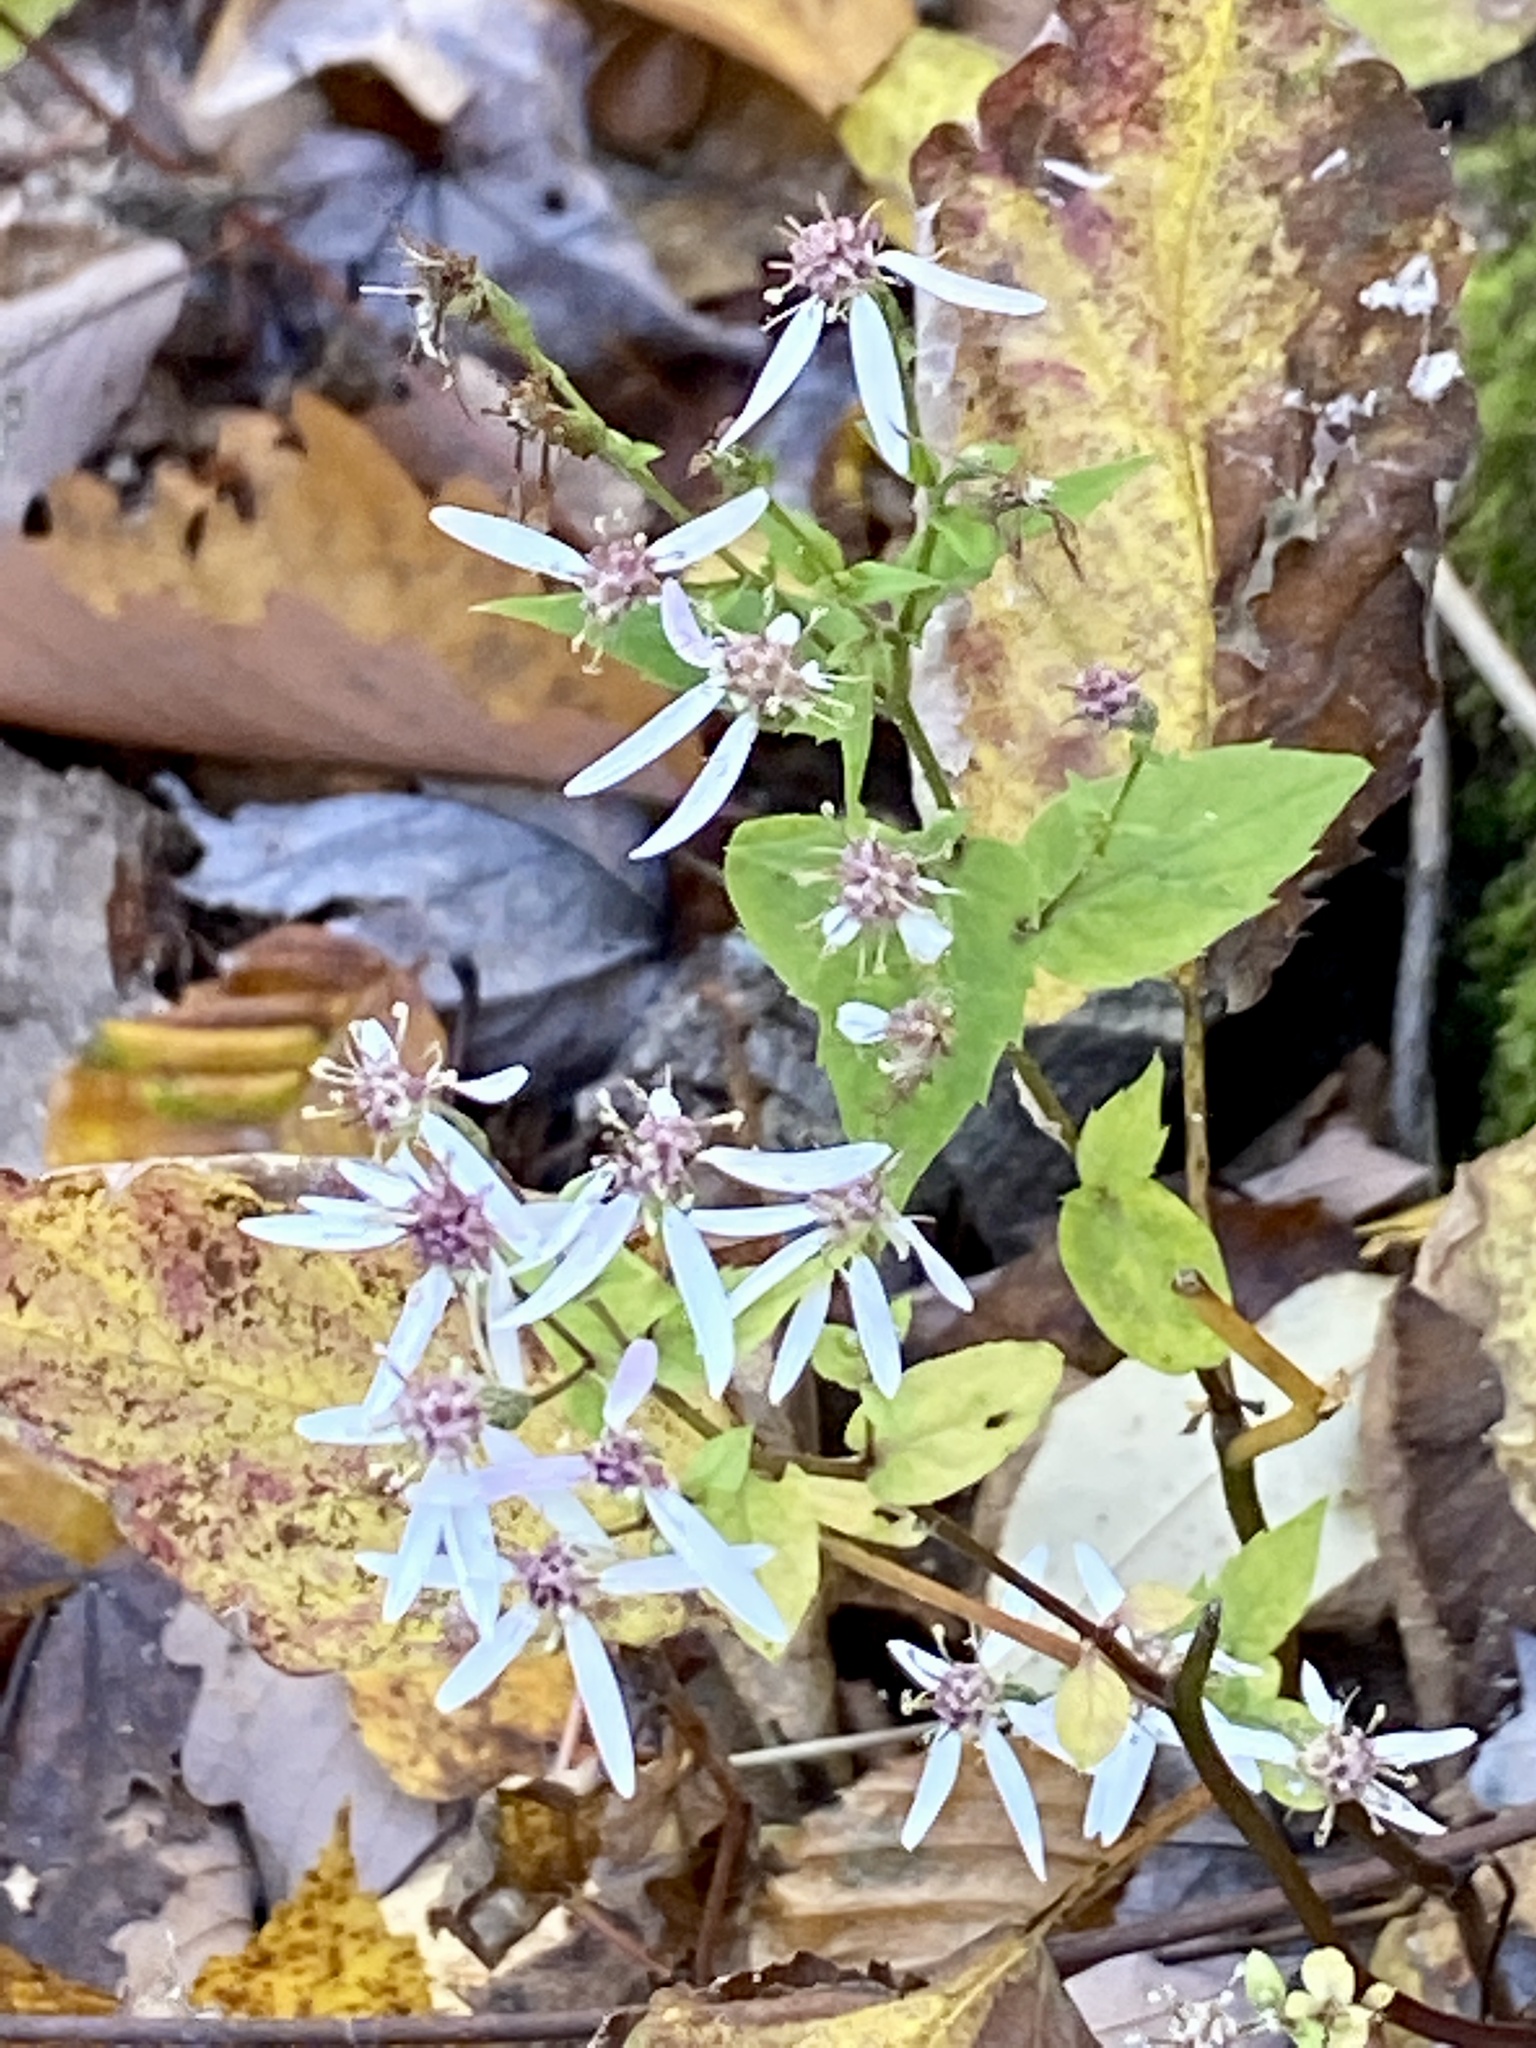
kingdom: Plantae
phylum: Tracheophyta
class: Magnoliopsida
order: Asterales
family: Asteraceae
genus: Eurybia
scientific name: Eurybia divaricata
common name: White wood aster
